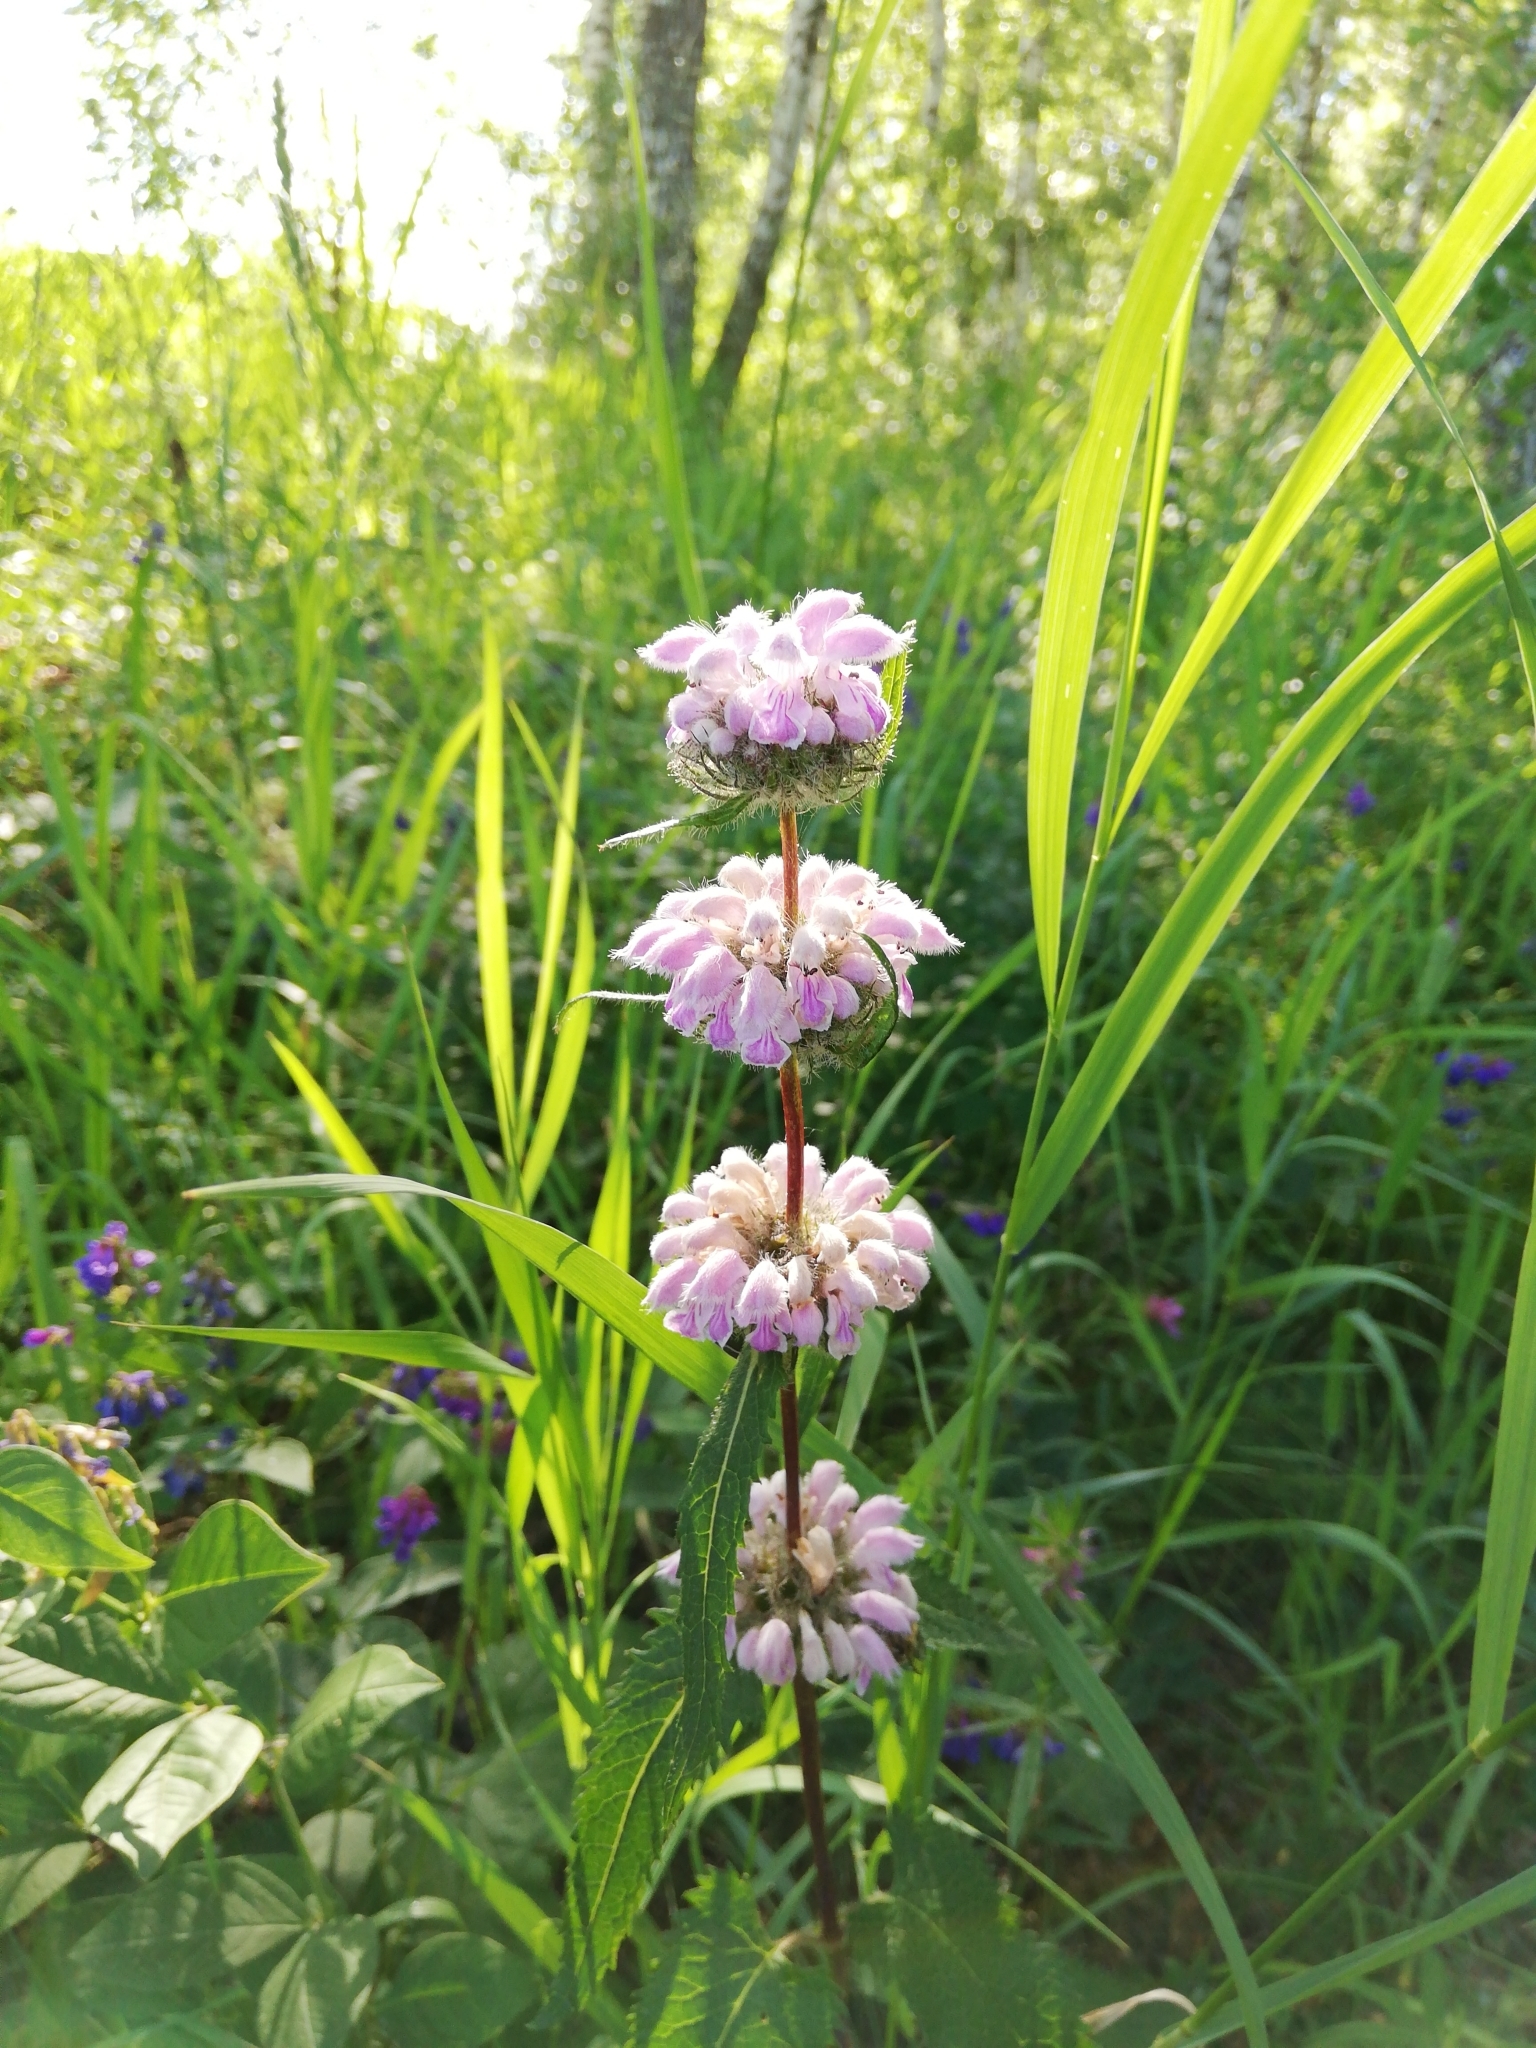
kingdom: Plantae
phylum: Tracheophyta
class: Magnoliopsida
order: Lamiales
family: Lamiaceae
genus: Phlomoides
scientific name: Phlomoides tuberosa
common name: Tuberous jerusalem sage
